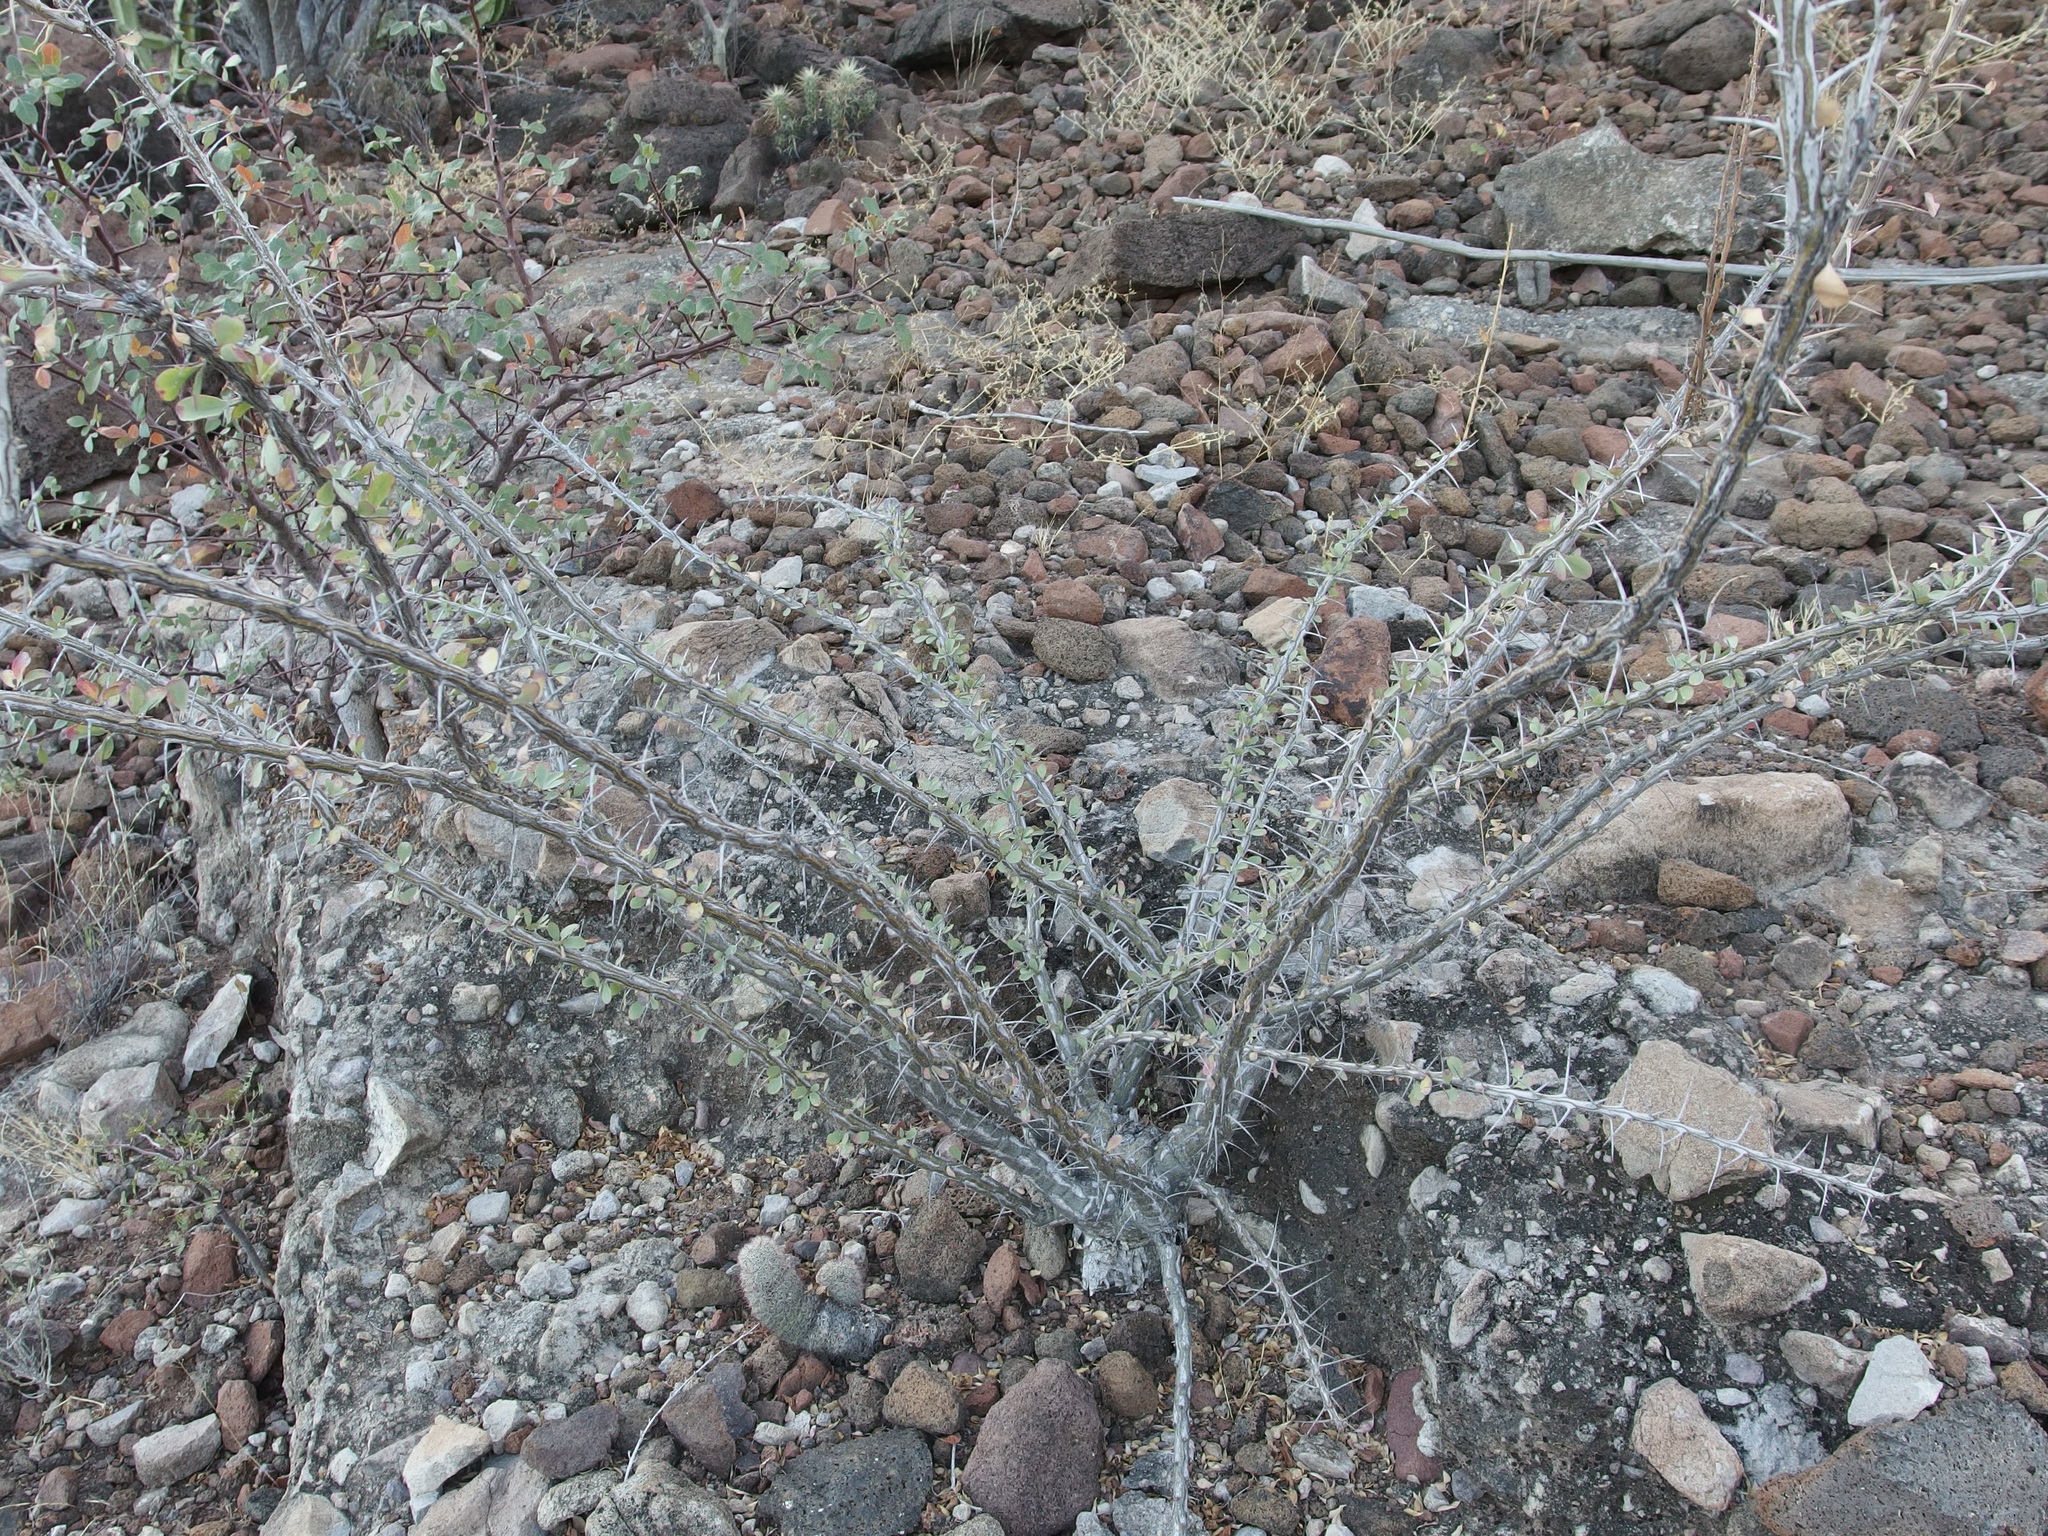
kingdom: Plantae
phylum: Tracheophyta
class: Magnoliopsida
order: Ericales
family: Fouquieriaceae
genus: Fouquieria
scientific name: Fouquieria burragei
